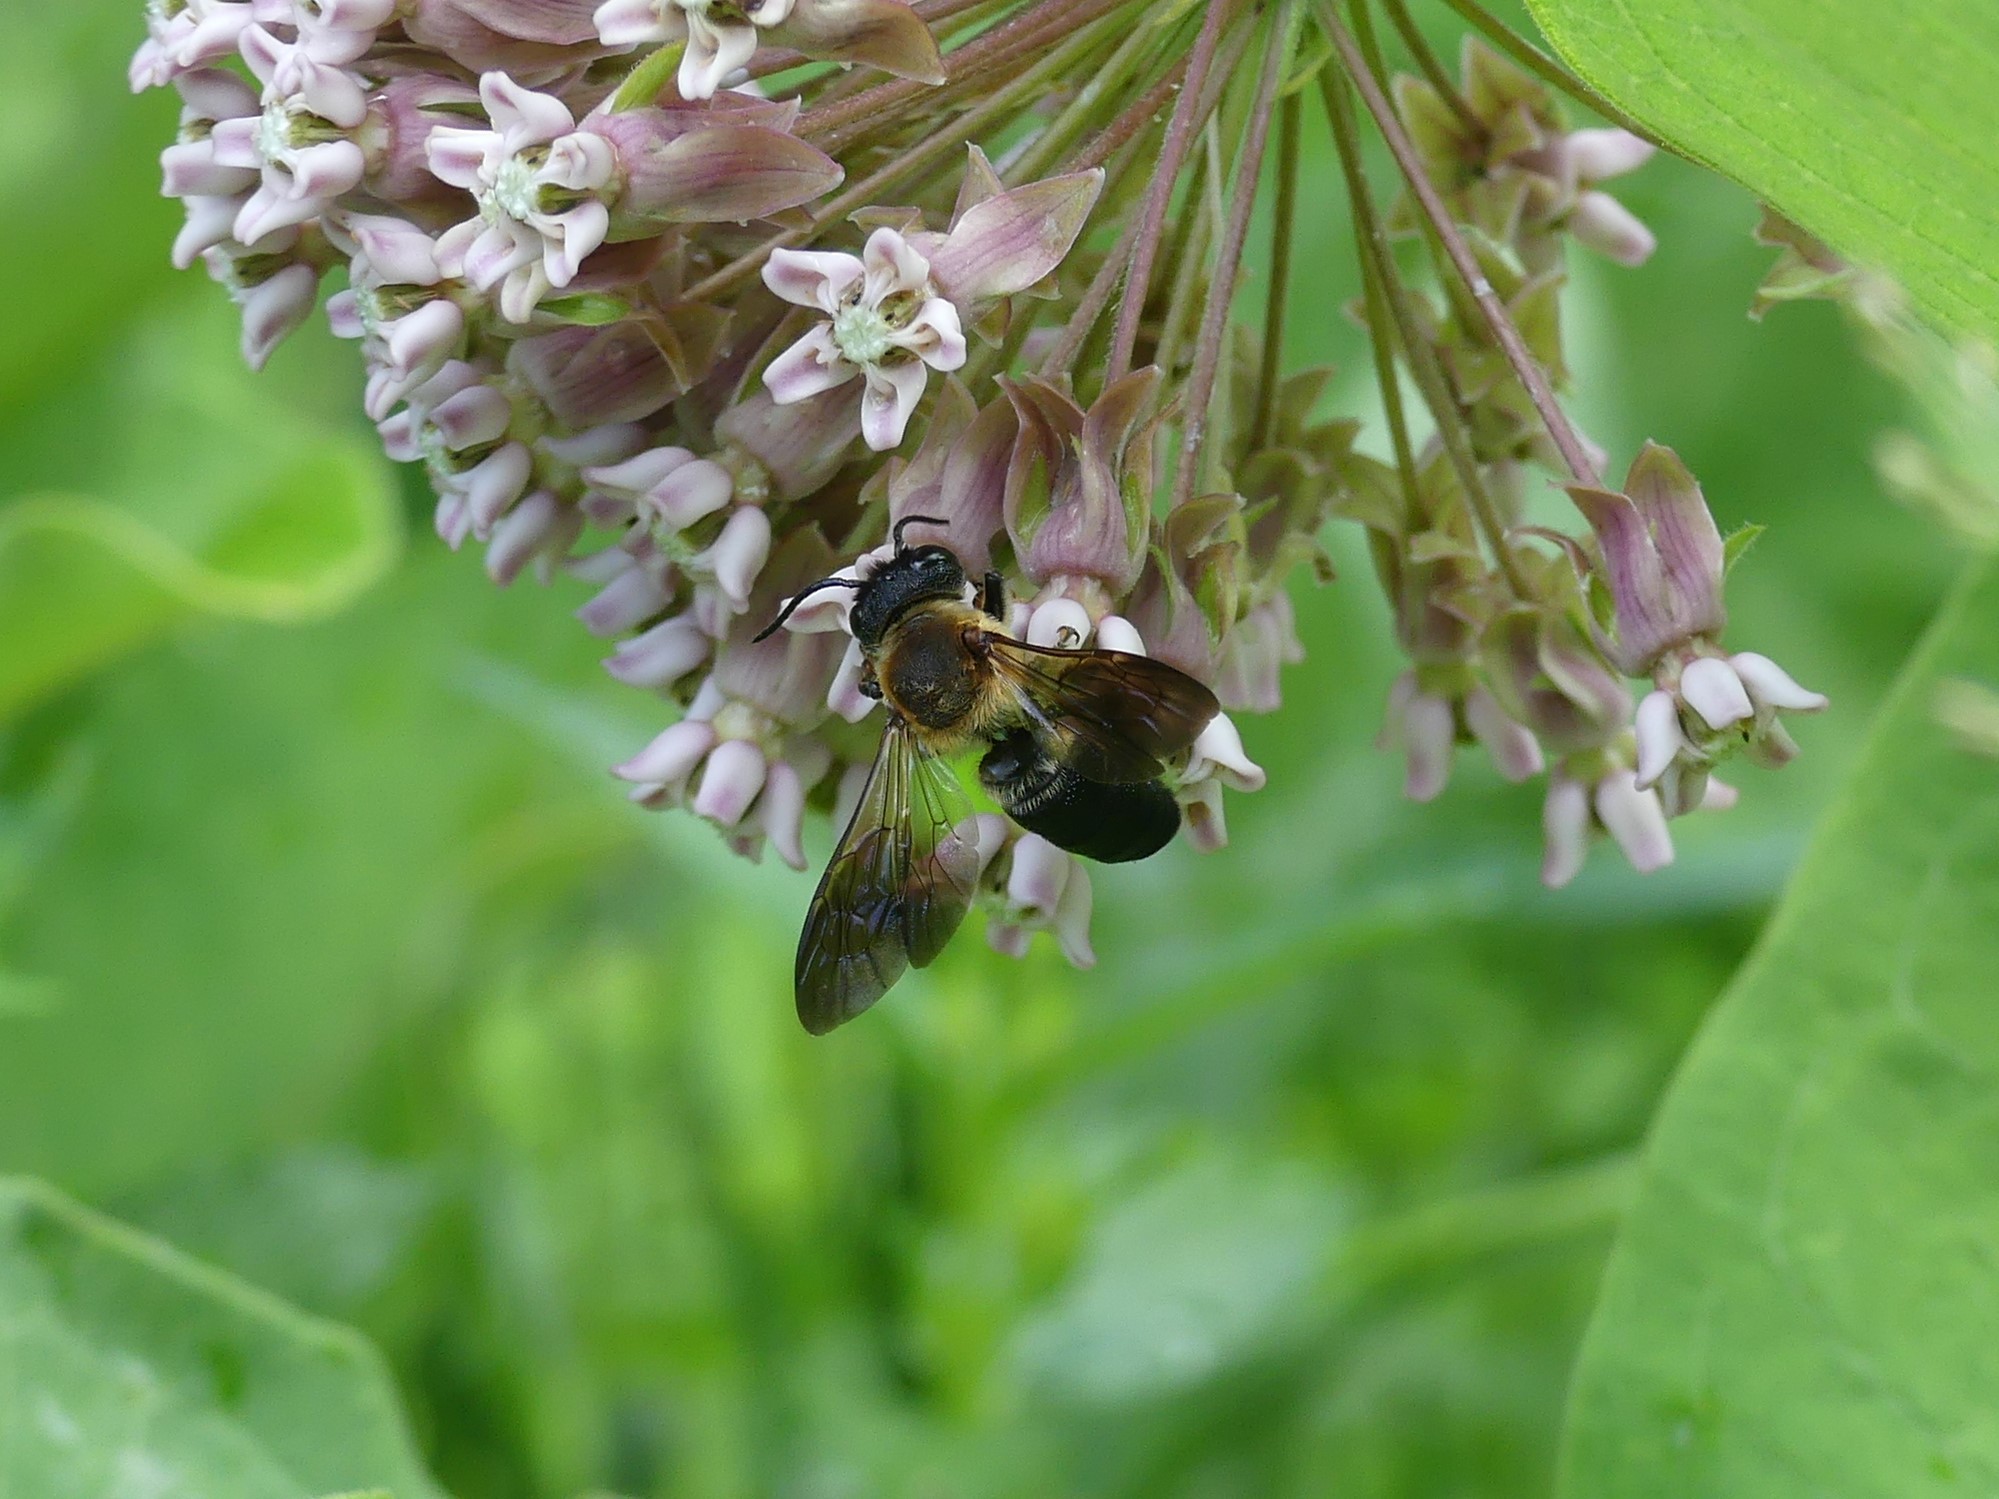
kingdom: Animalia
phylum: Arthropoda
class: Insecta
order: Hymenoptera
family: Megachilidae
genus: Megachile
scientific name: Megachile sculpturalis
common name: Sculptured resin bee
